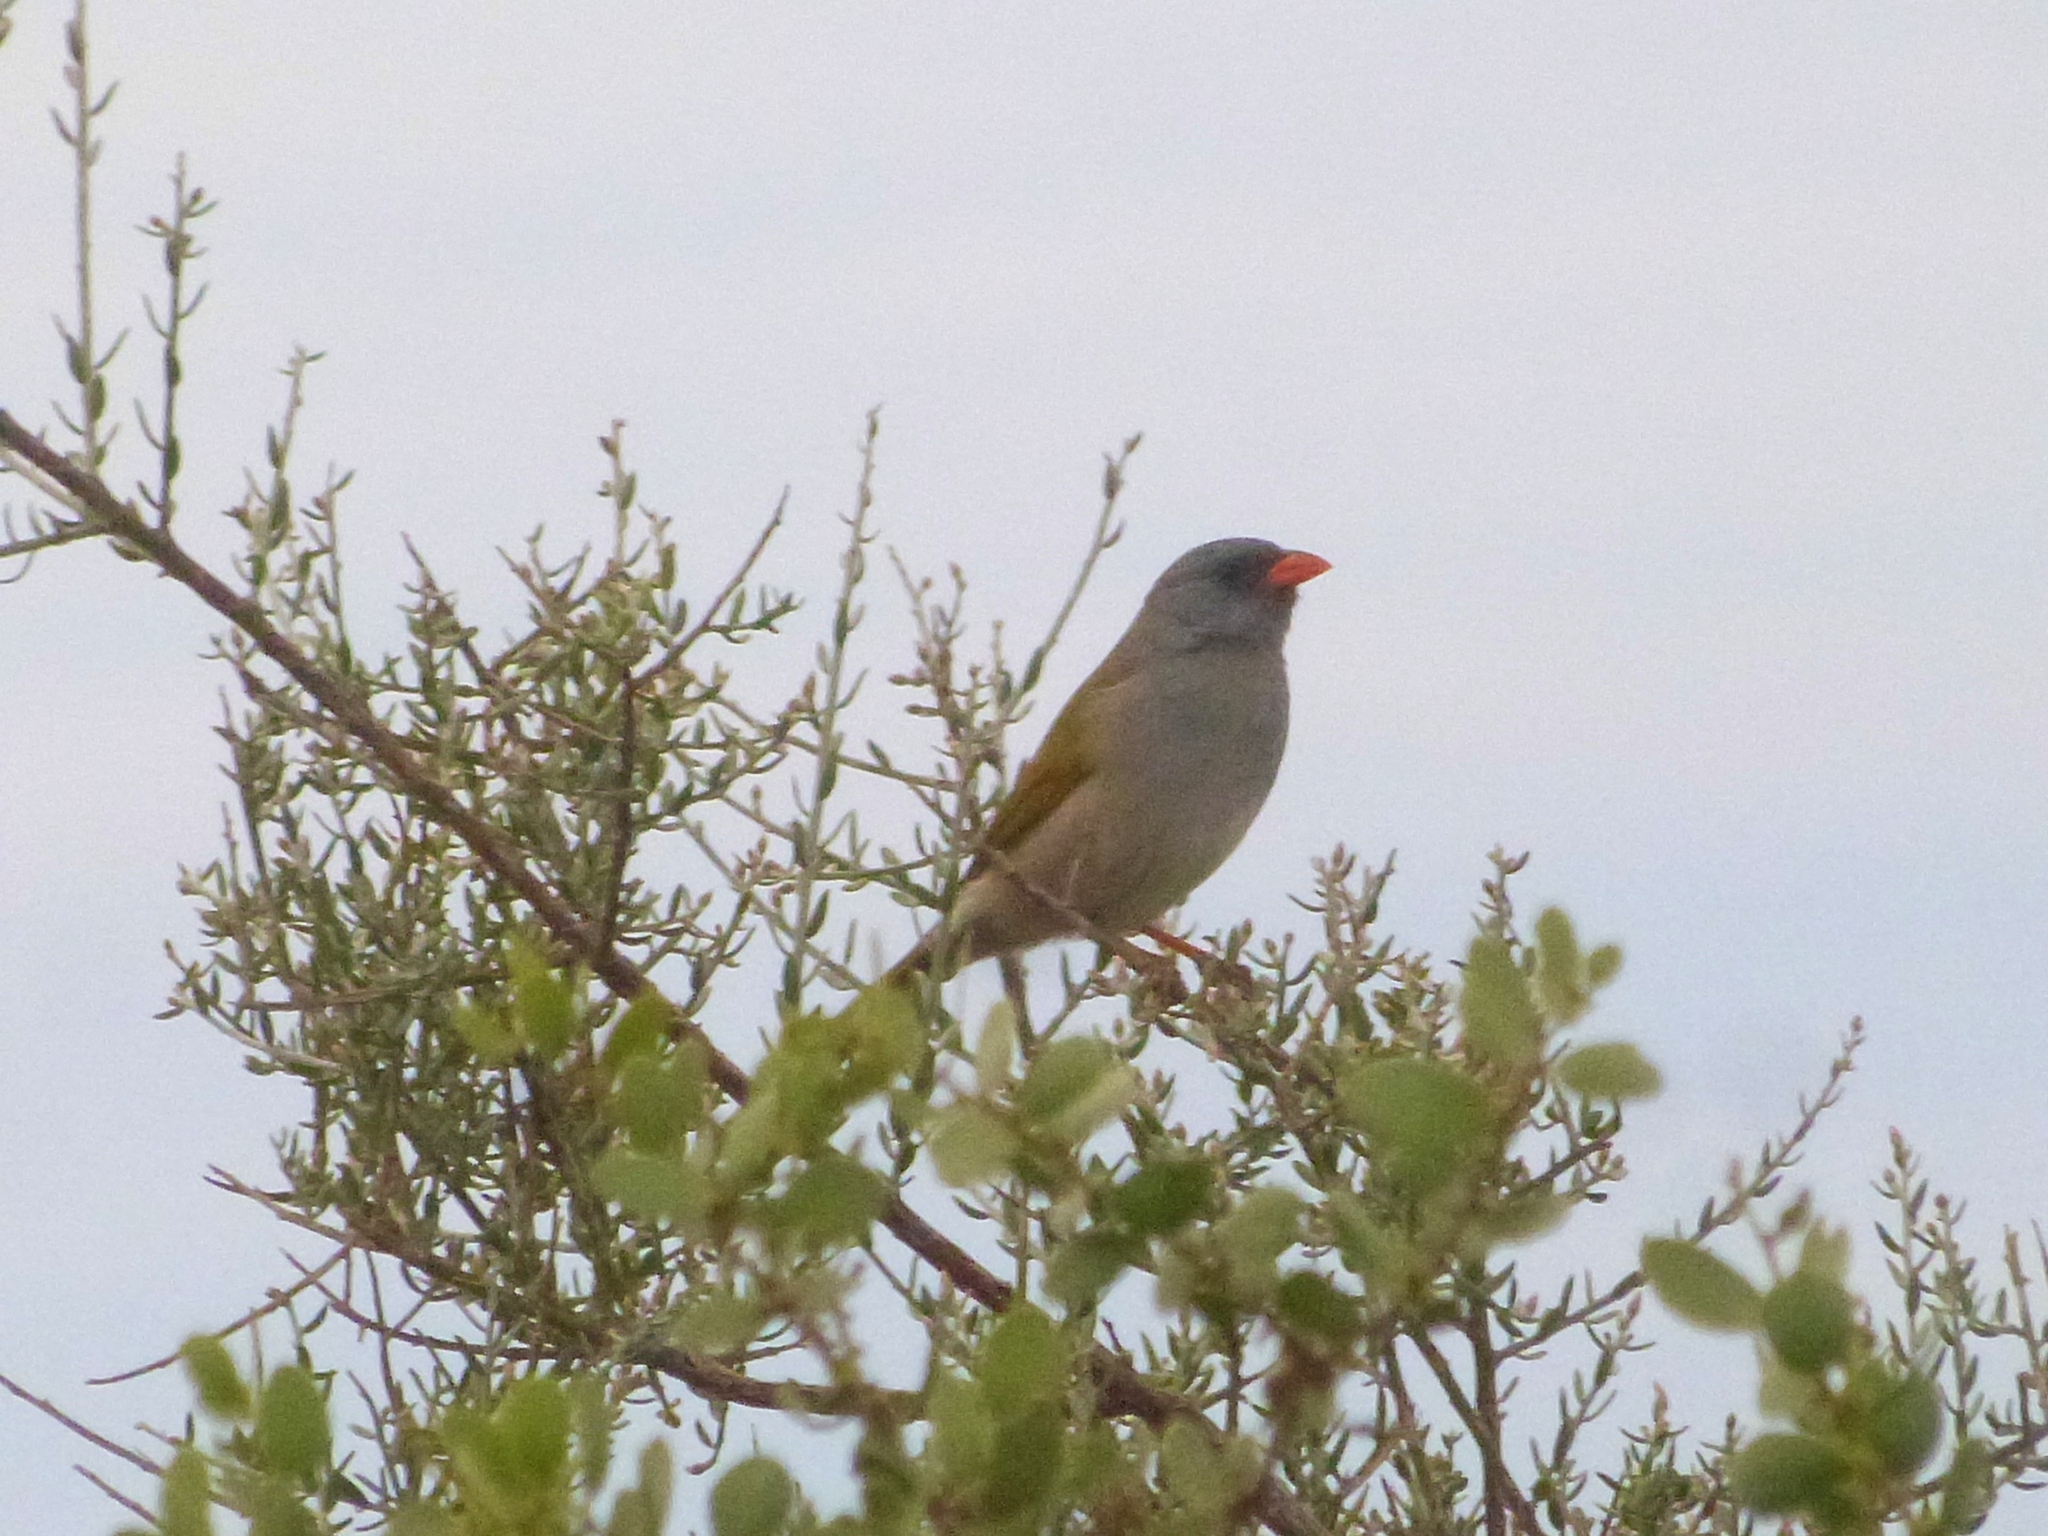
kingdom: Animalia
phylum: Chordata
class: Aves
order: Passeriformes
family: Thraupidae
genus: Embernagra
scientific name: Embernagra platensis
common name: Pampa finch
